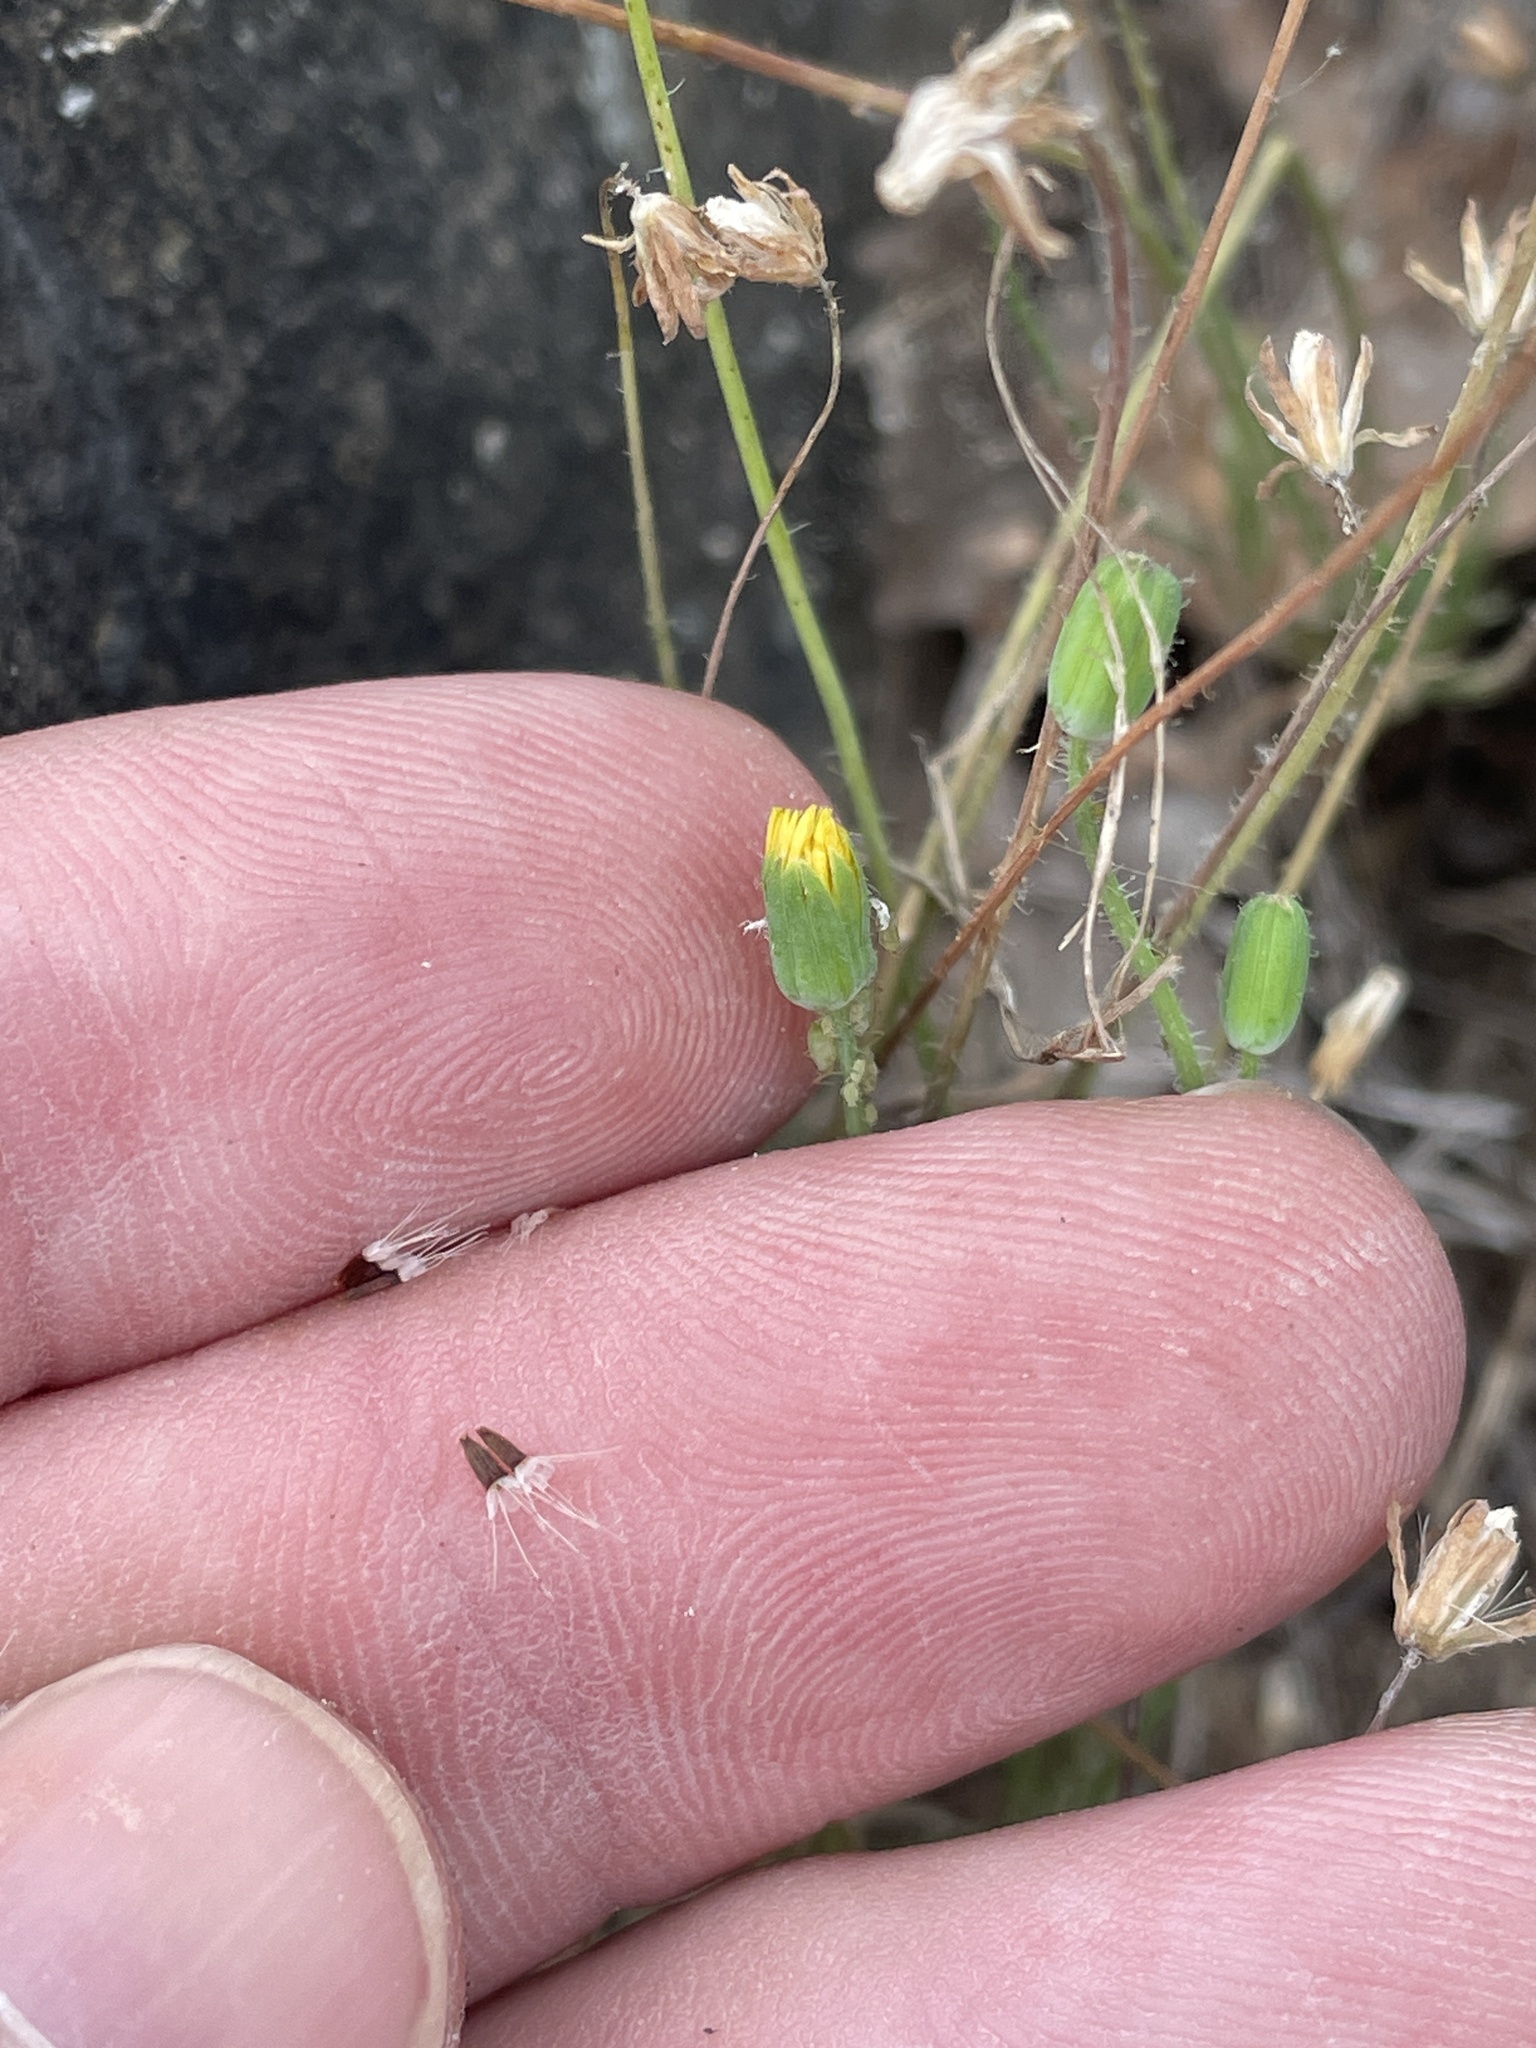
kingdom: Plantae
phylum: Tracheophyta
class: Magnoliopsida
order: Asterales
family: Asteraceae
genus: Krigia
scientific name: Krigia virginica
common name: Virginia dwarf-dandelion
